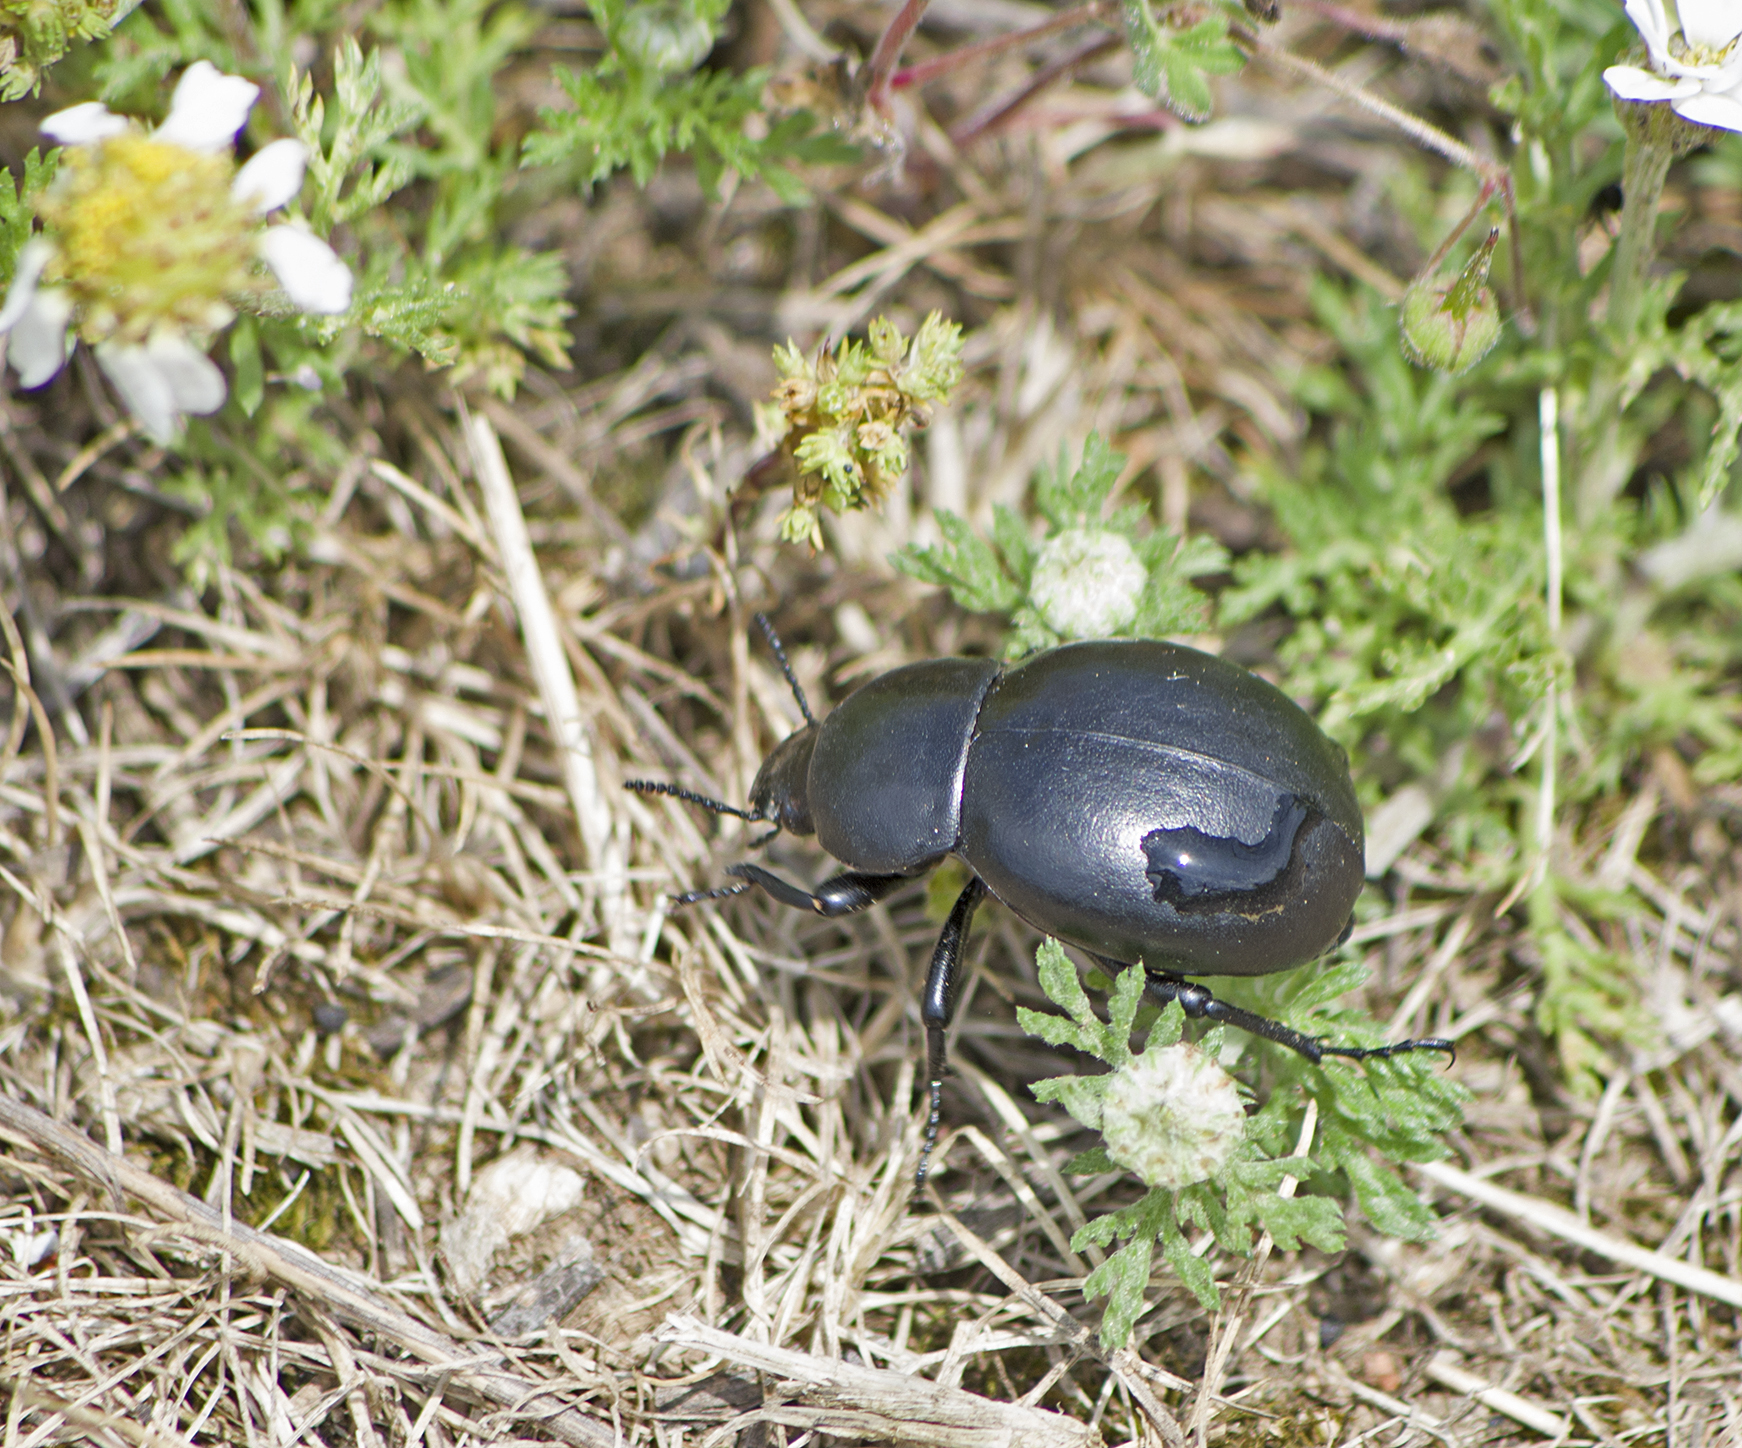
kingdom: Animalia
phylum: Arthropoda
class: Insecta
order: Coleoptera
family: Tenebrionidae
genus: Gnaptor
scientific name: Gnaptor spinimanus
